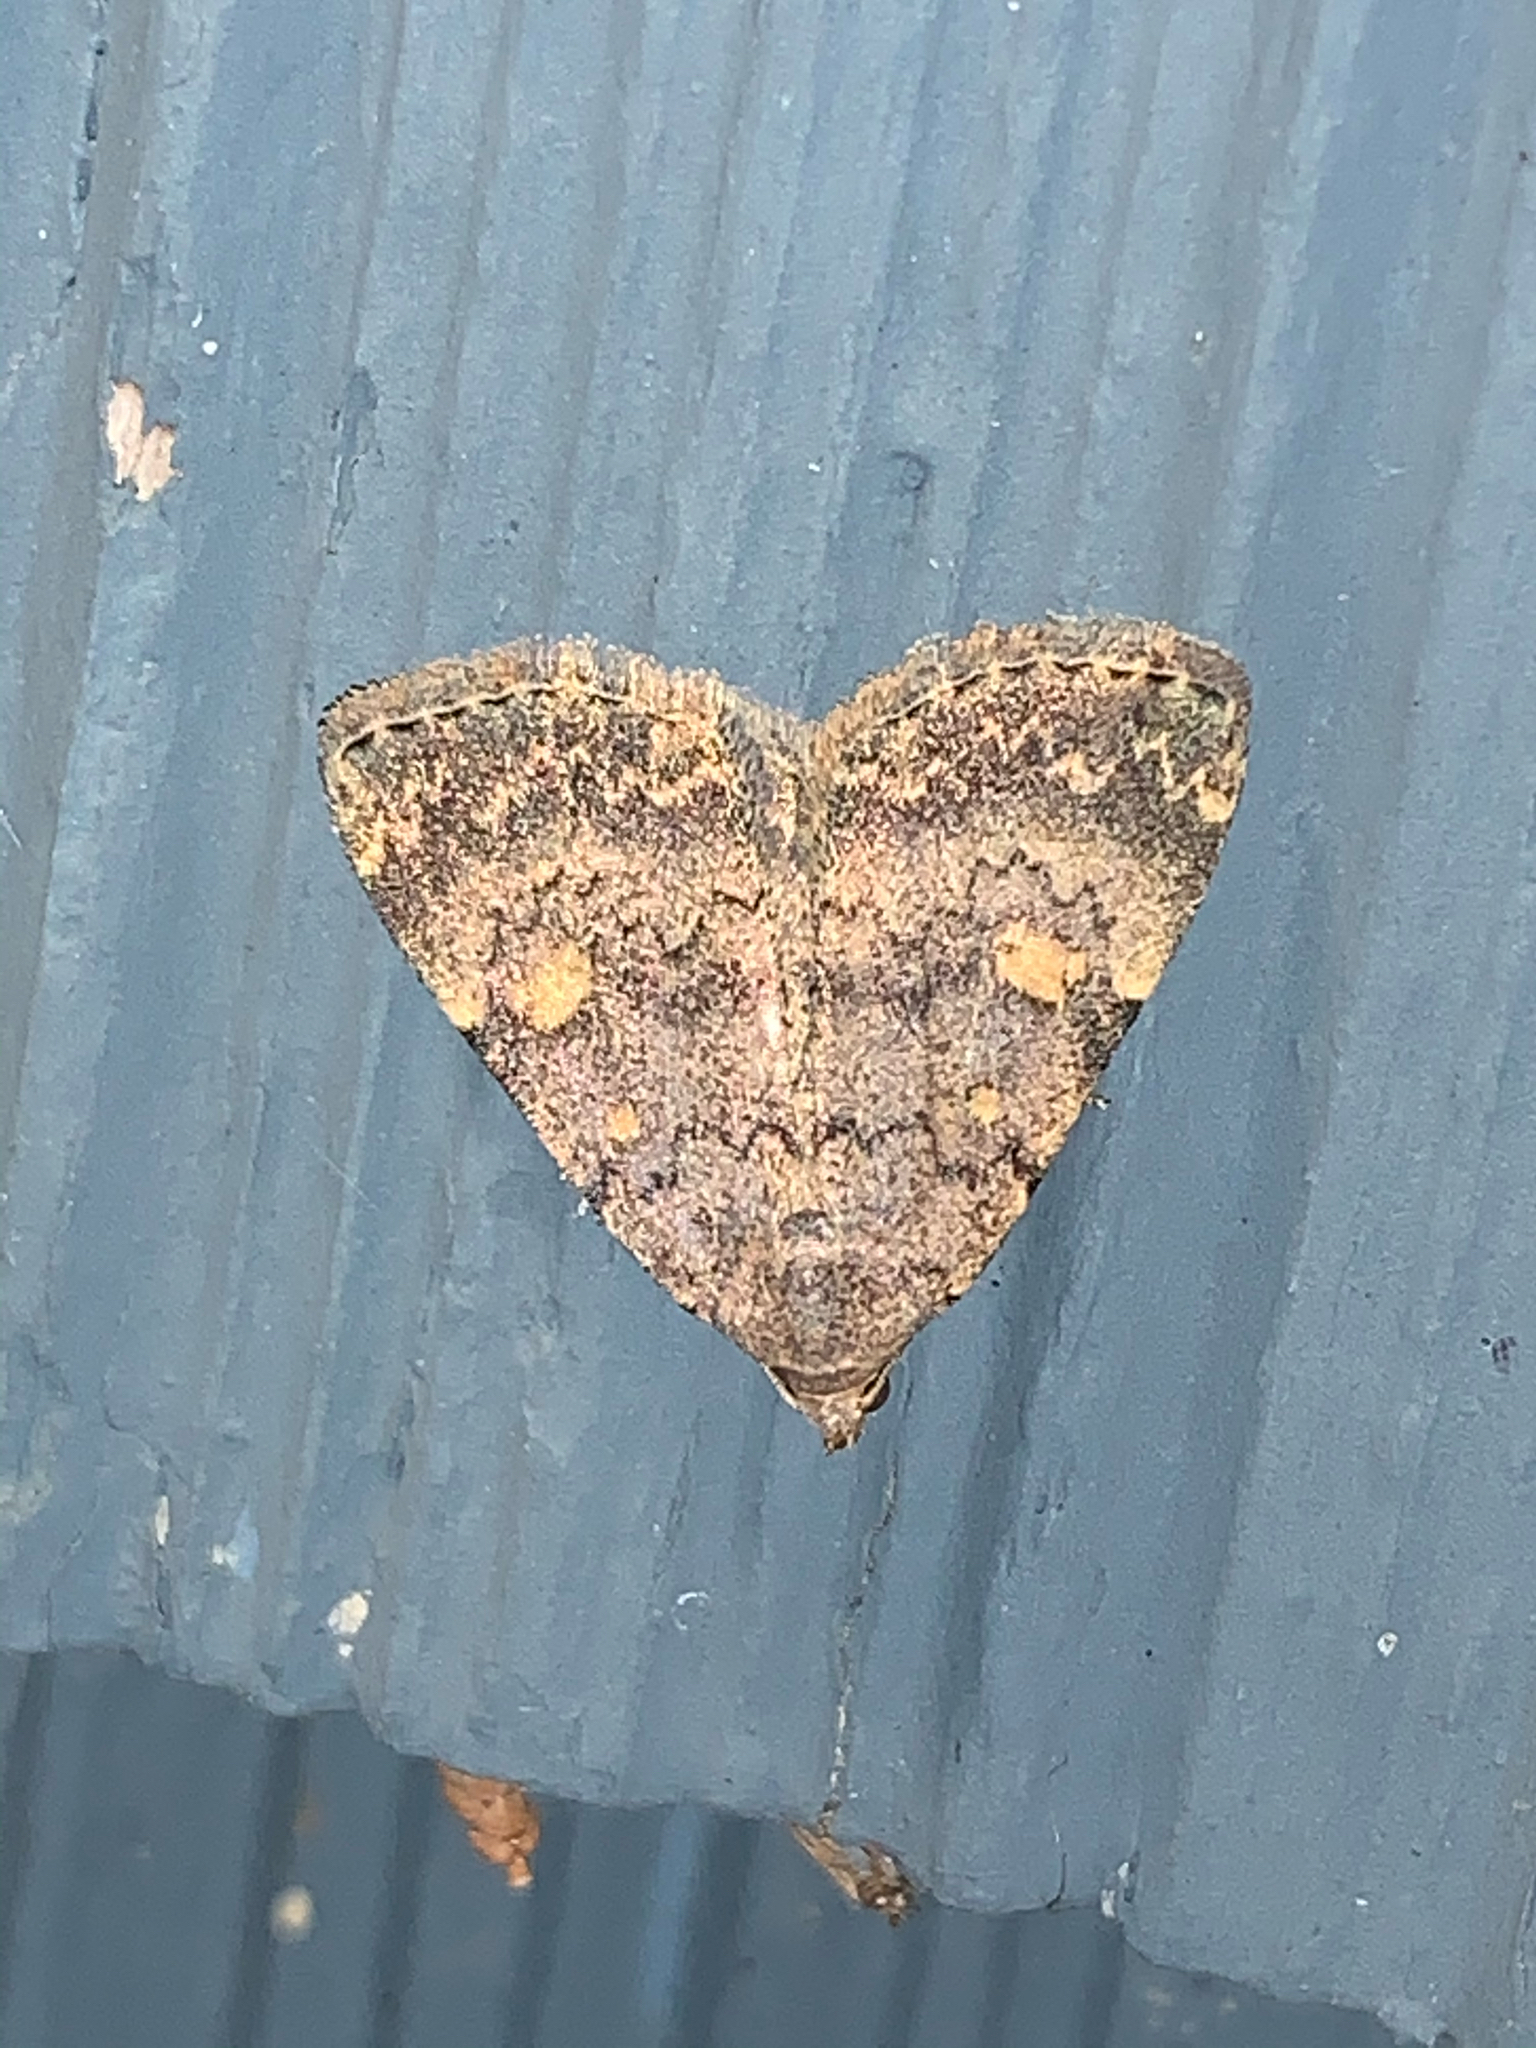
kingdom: Animalia
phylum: Arthropoda
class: Insecta
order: Lepidoptera
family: Erebidae
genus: Idia
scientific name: Idia aemula
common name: Common idia moth
